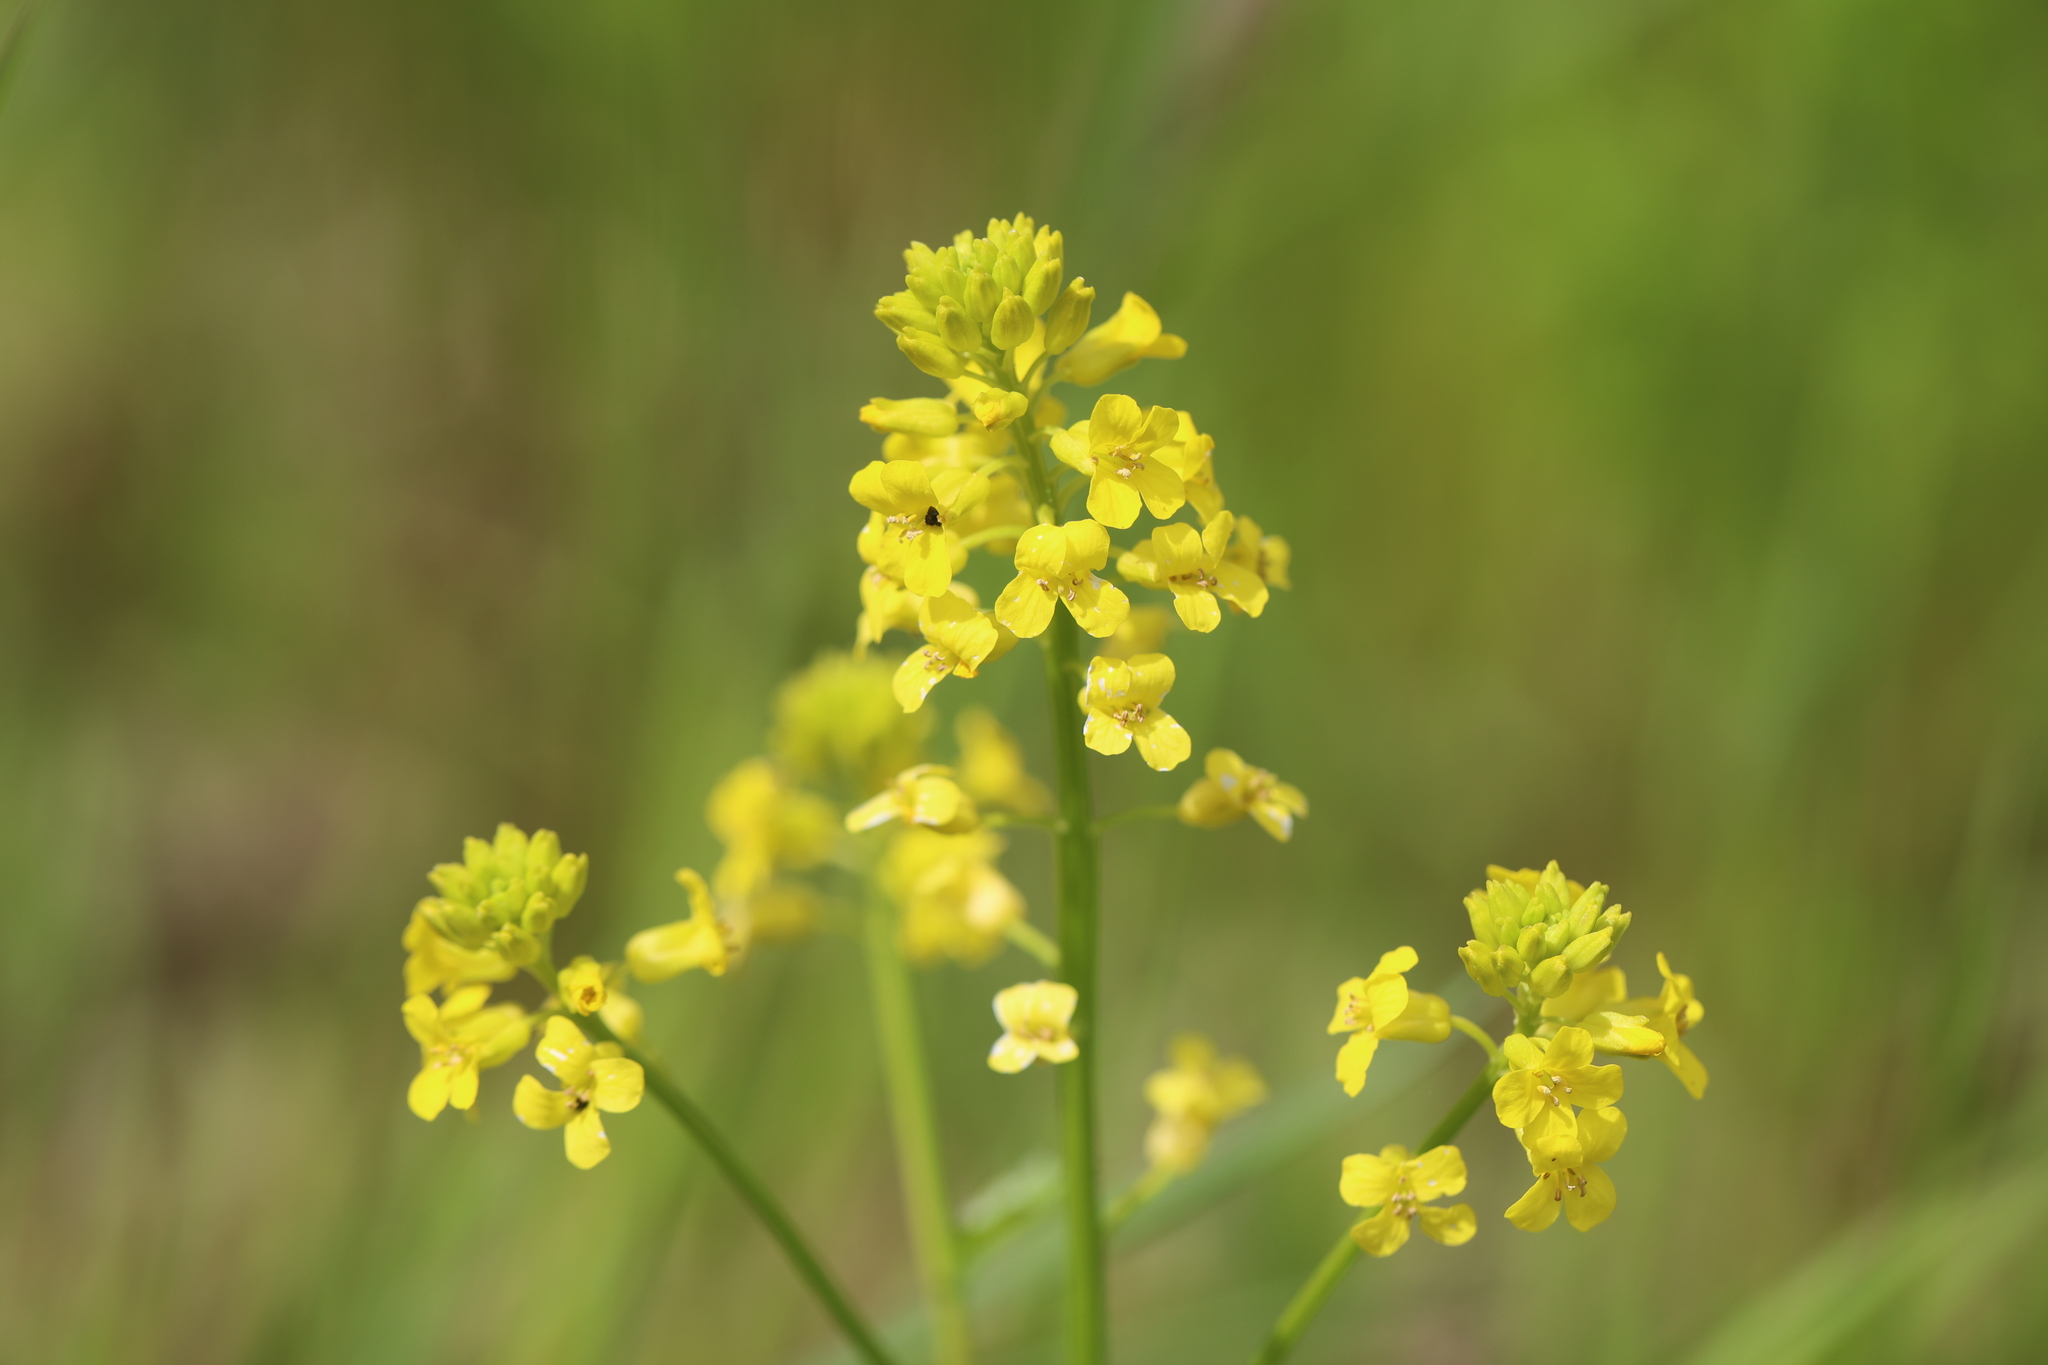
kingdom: Plantae
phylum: Tracheophyta
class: Magnoliopsida
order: Brassicales
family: Brassicaceae
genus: Barbarea
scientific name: Barbarea vulgaris
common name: Cressy-greens
